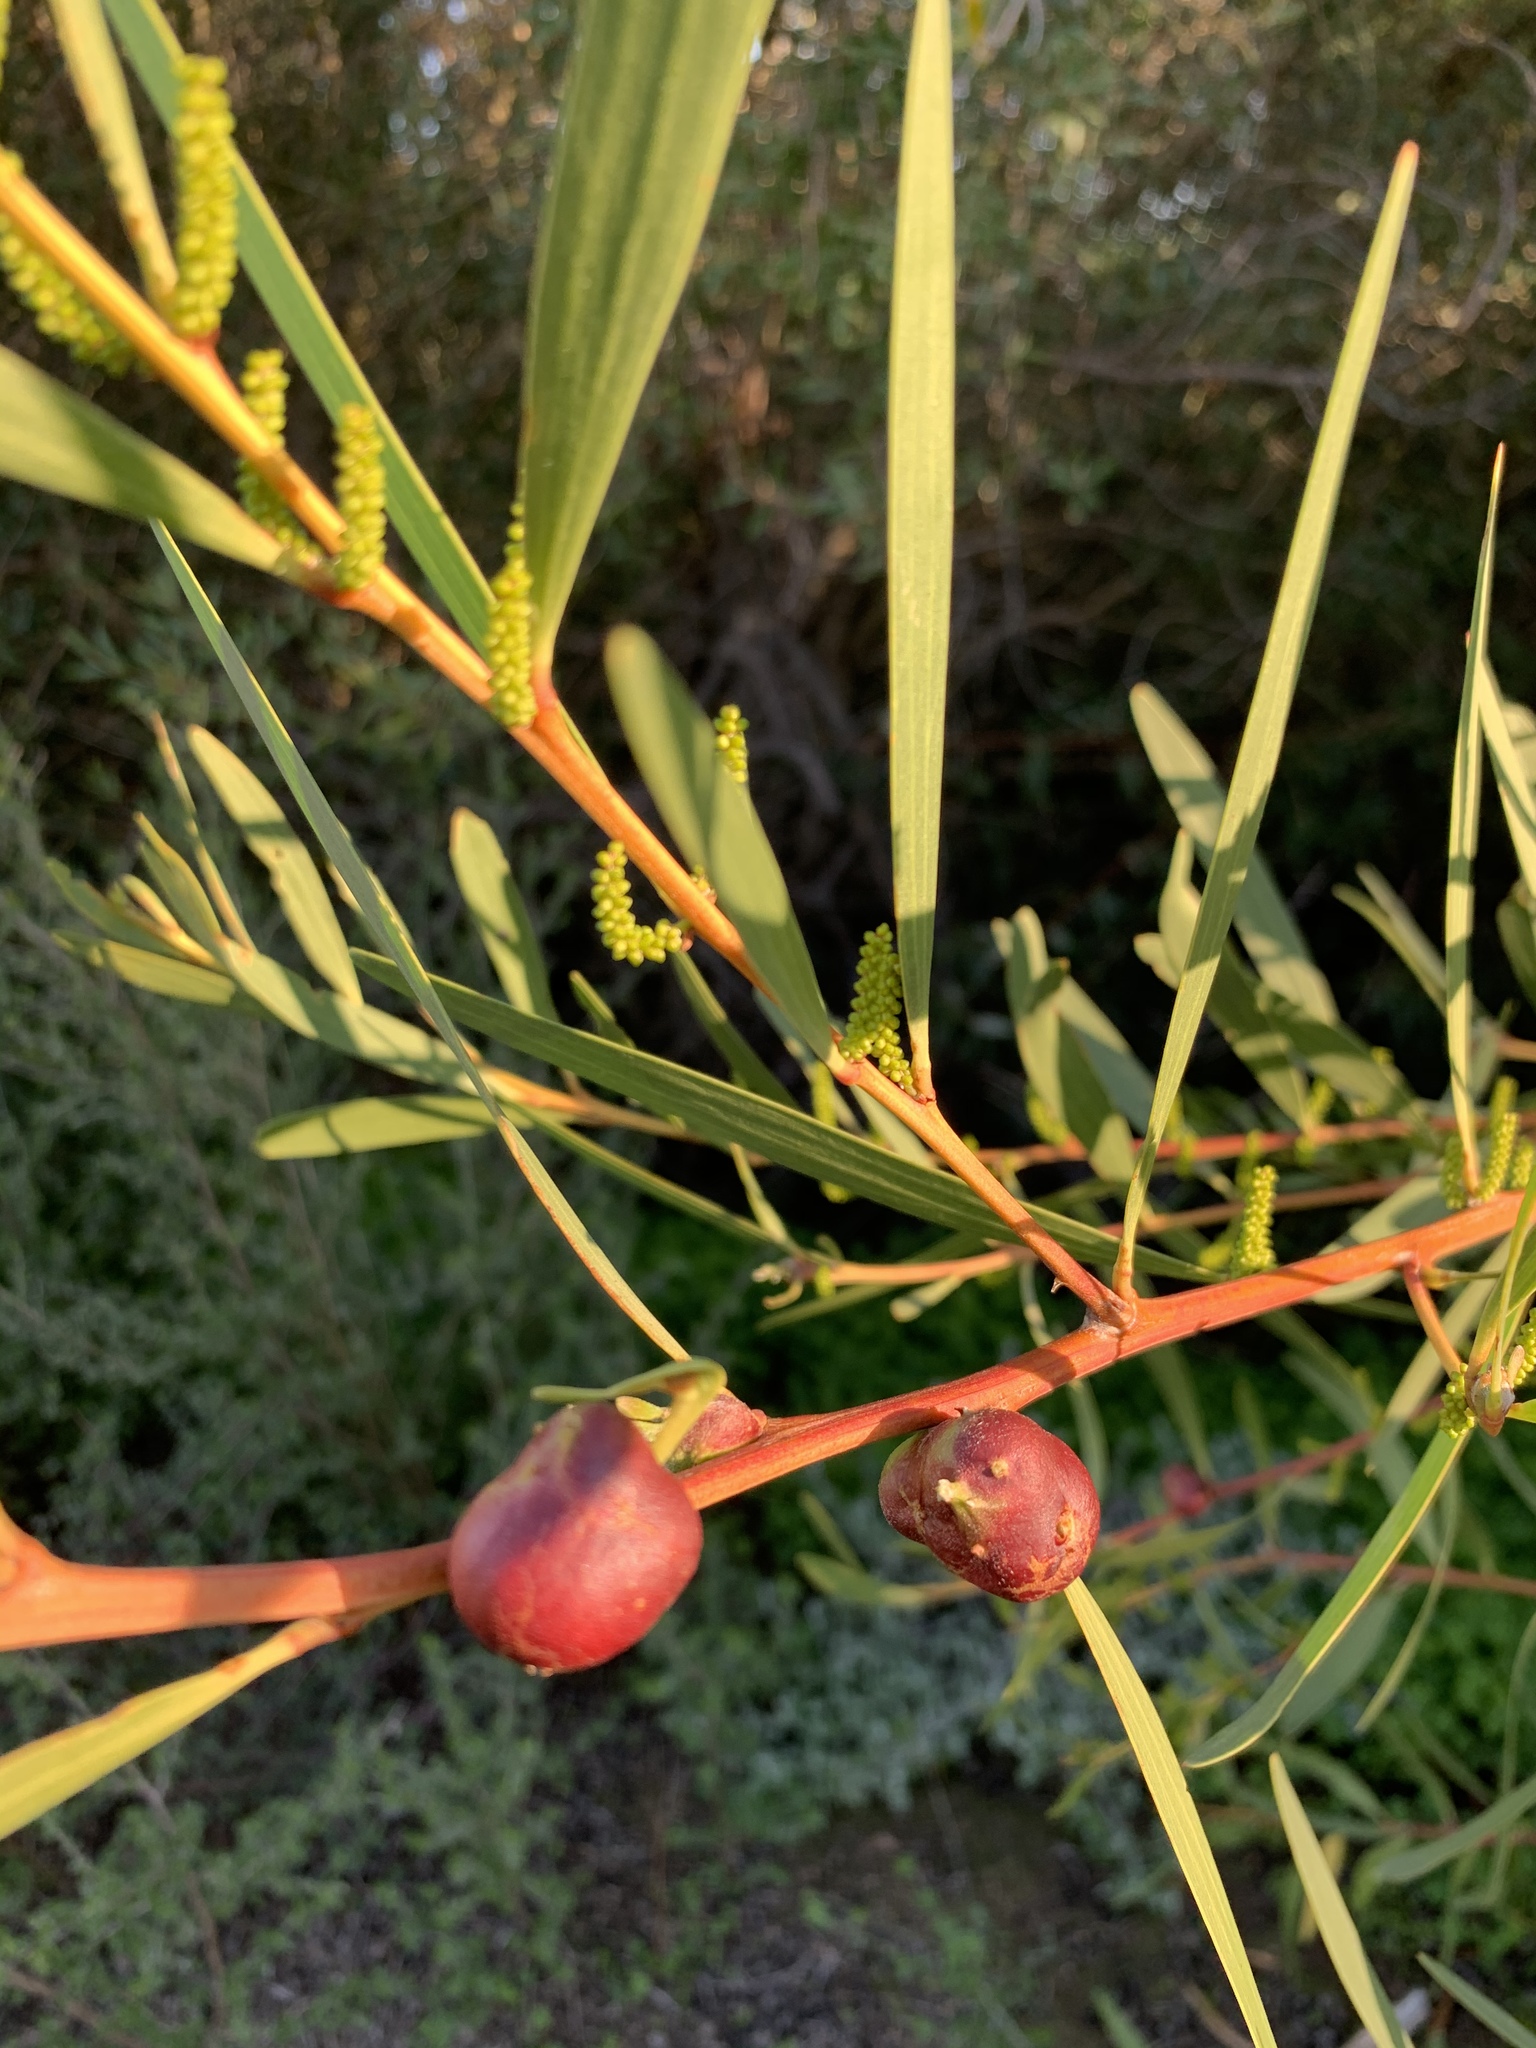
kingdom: Animalia
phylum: Arthropoda
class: Insecta
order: Hymenoptera
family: Pteromalidae
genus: Trichilogaster
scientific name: Trichilogaster acaciaelongifoliae
